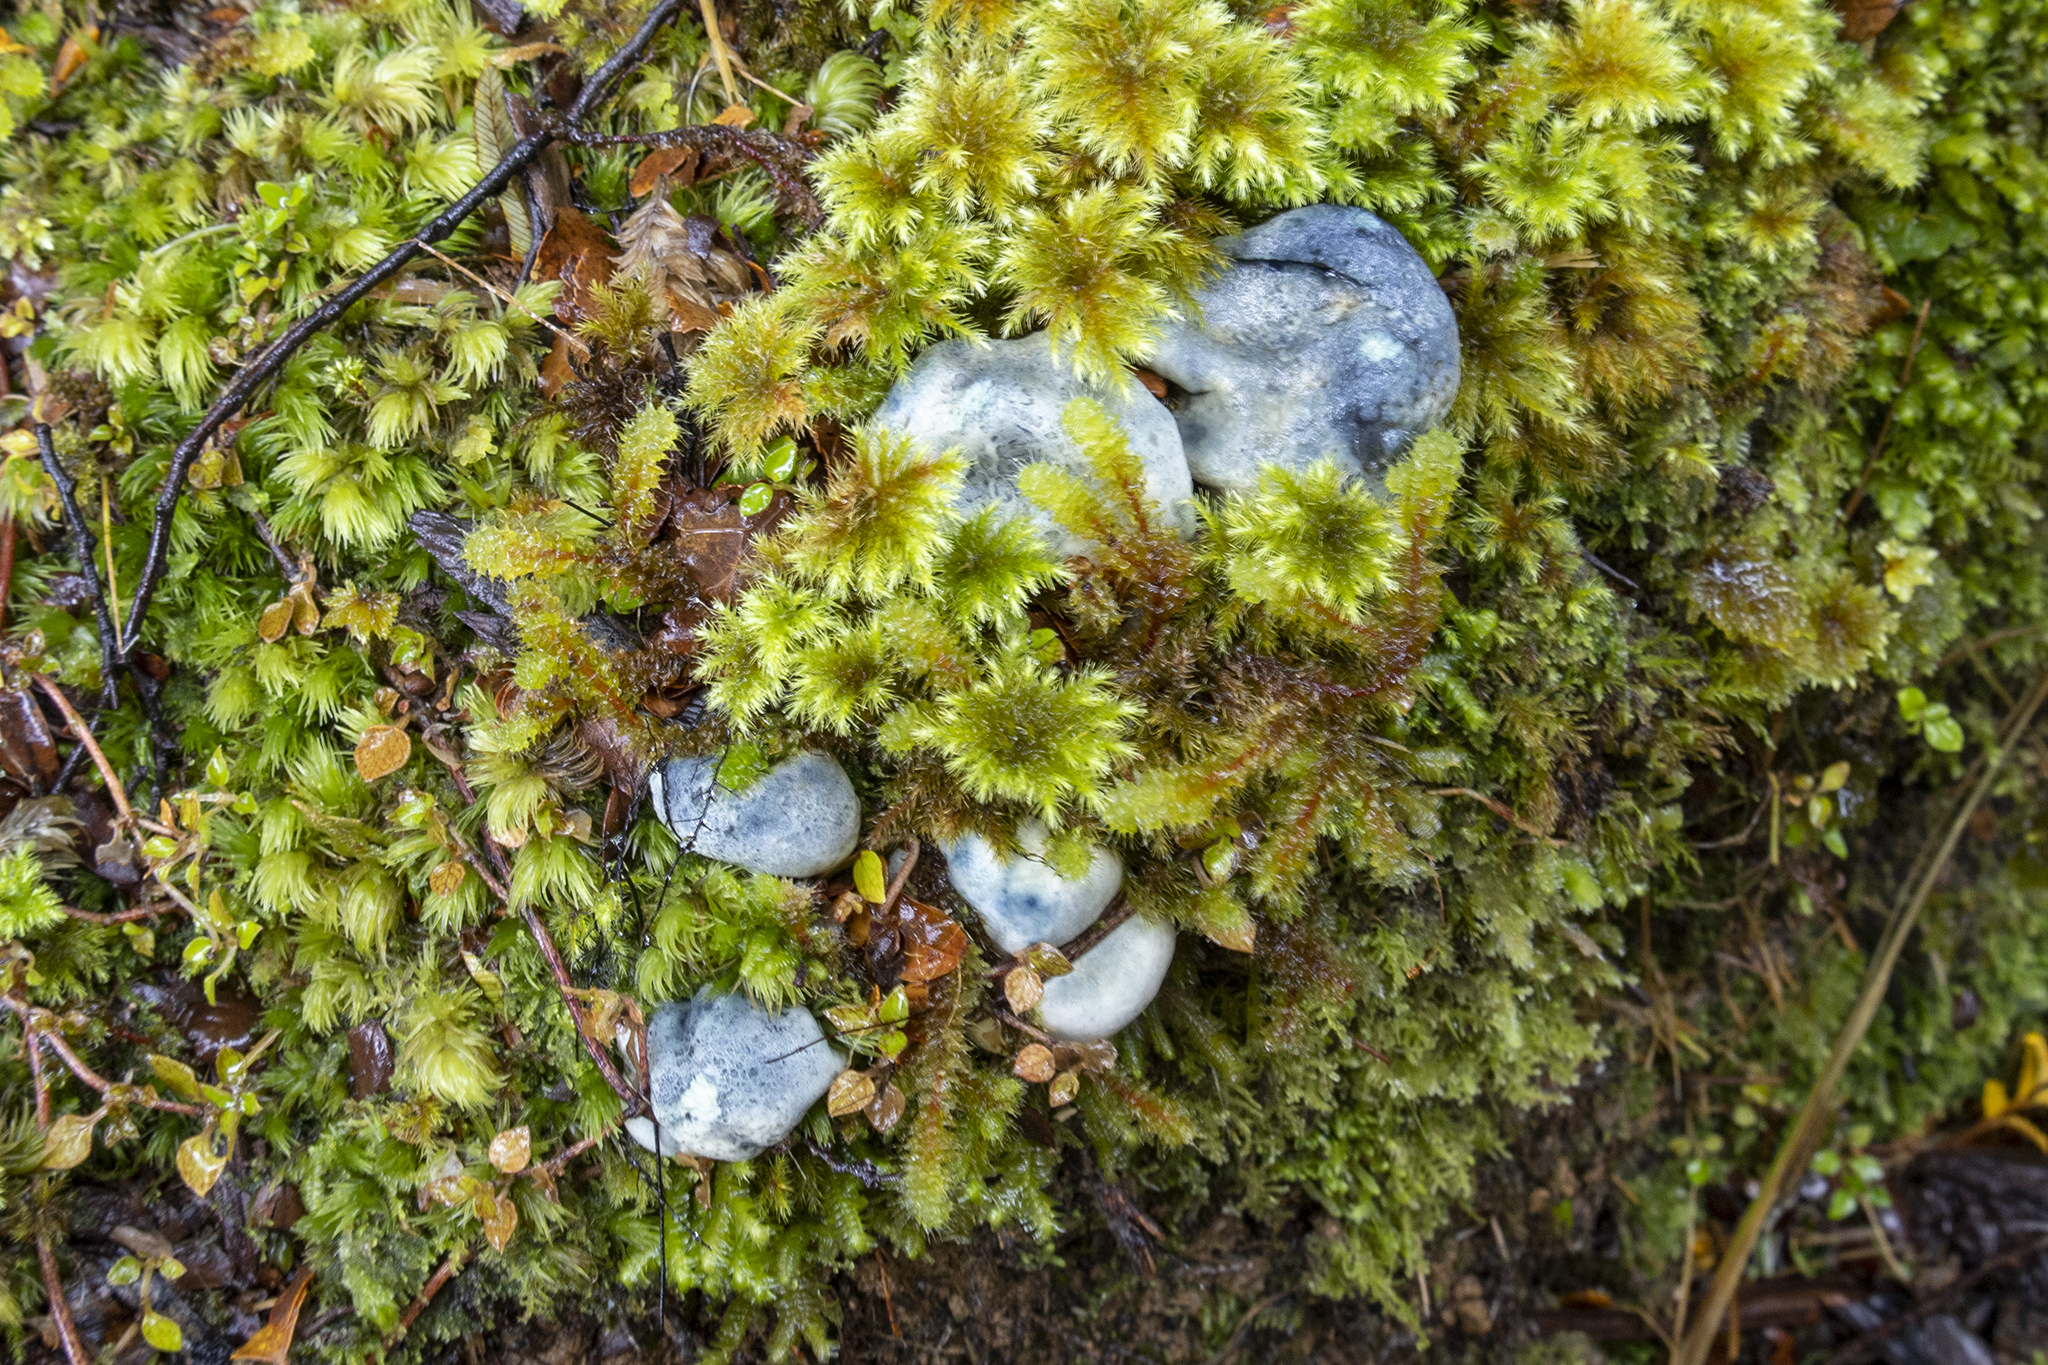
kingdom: Fungi
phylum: Basidiomycota
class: Agaricomycetes
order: Boletales
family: Boletaceae
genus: Leccinum
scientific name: Leccinum pachyderme
